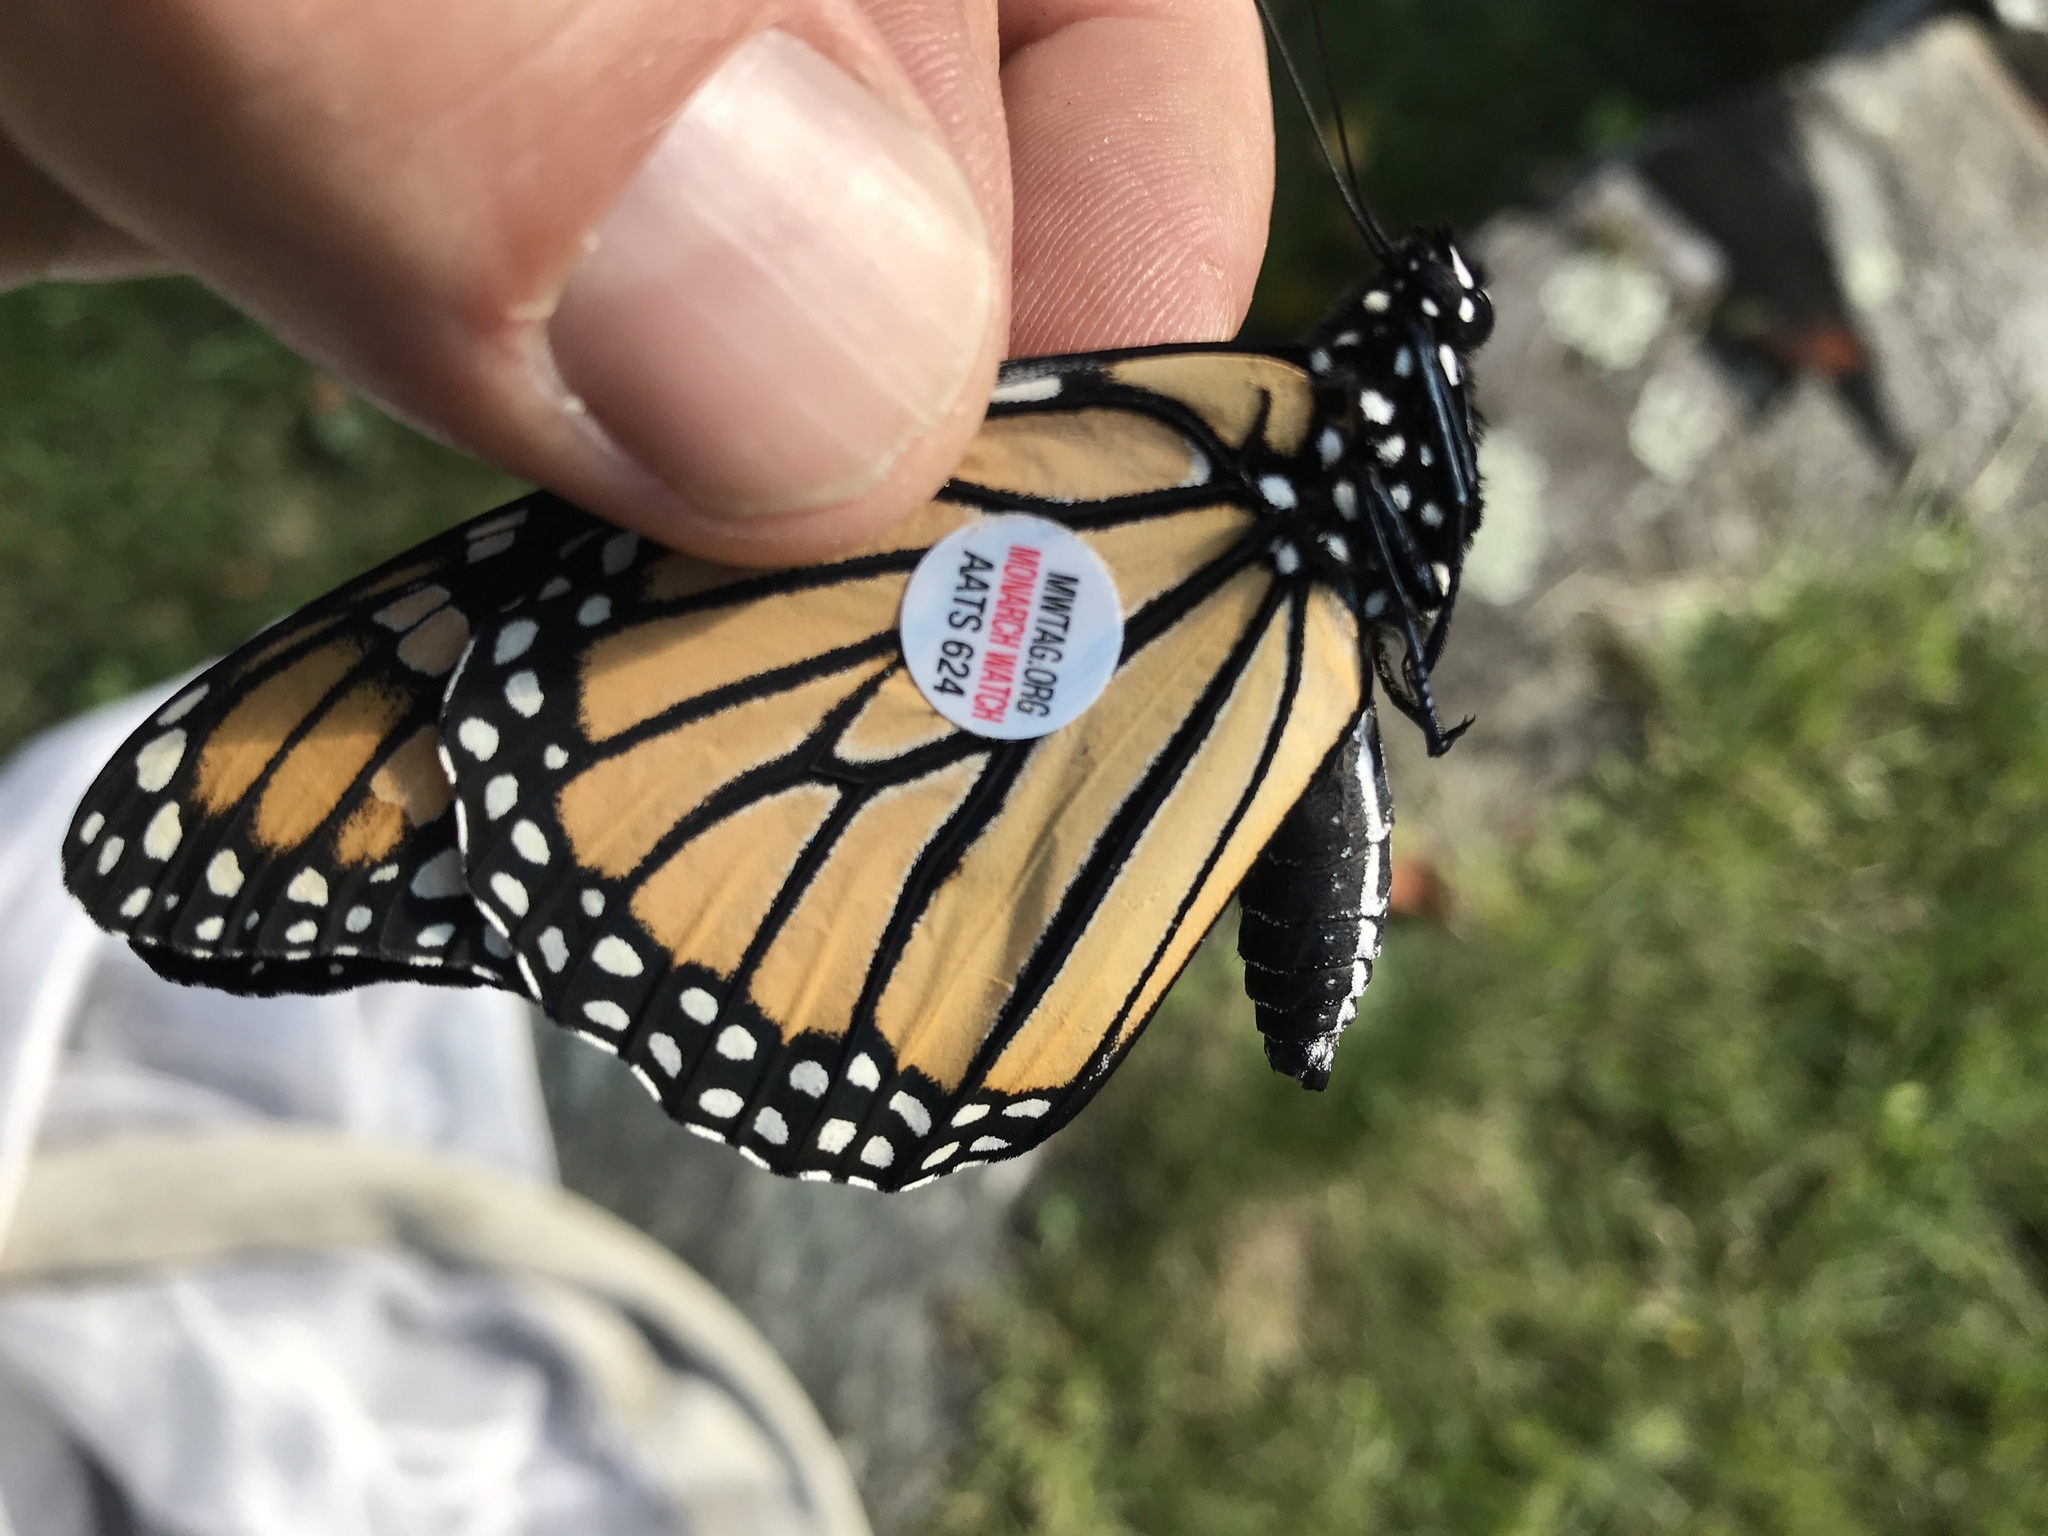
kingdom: Animalia
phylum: Arthropoda
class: Insecta
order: Lepidoptera
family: Nymphalidae
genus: Danaus
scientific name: Danaus plexippus
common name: Monarch
